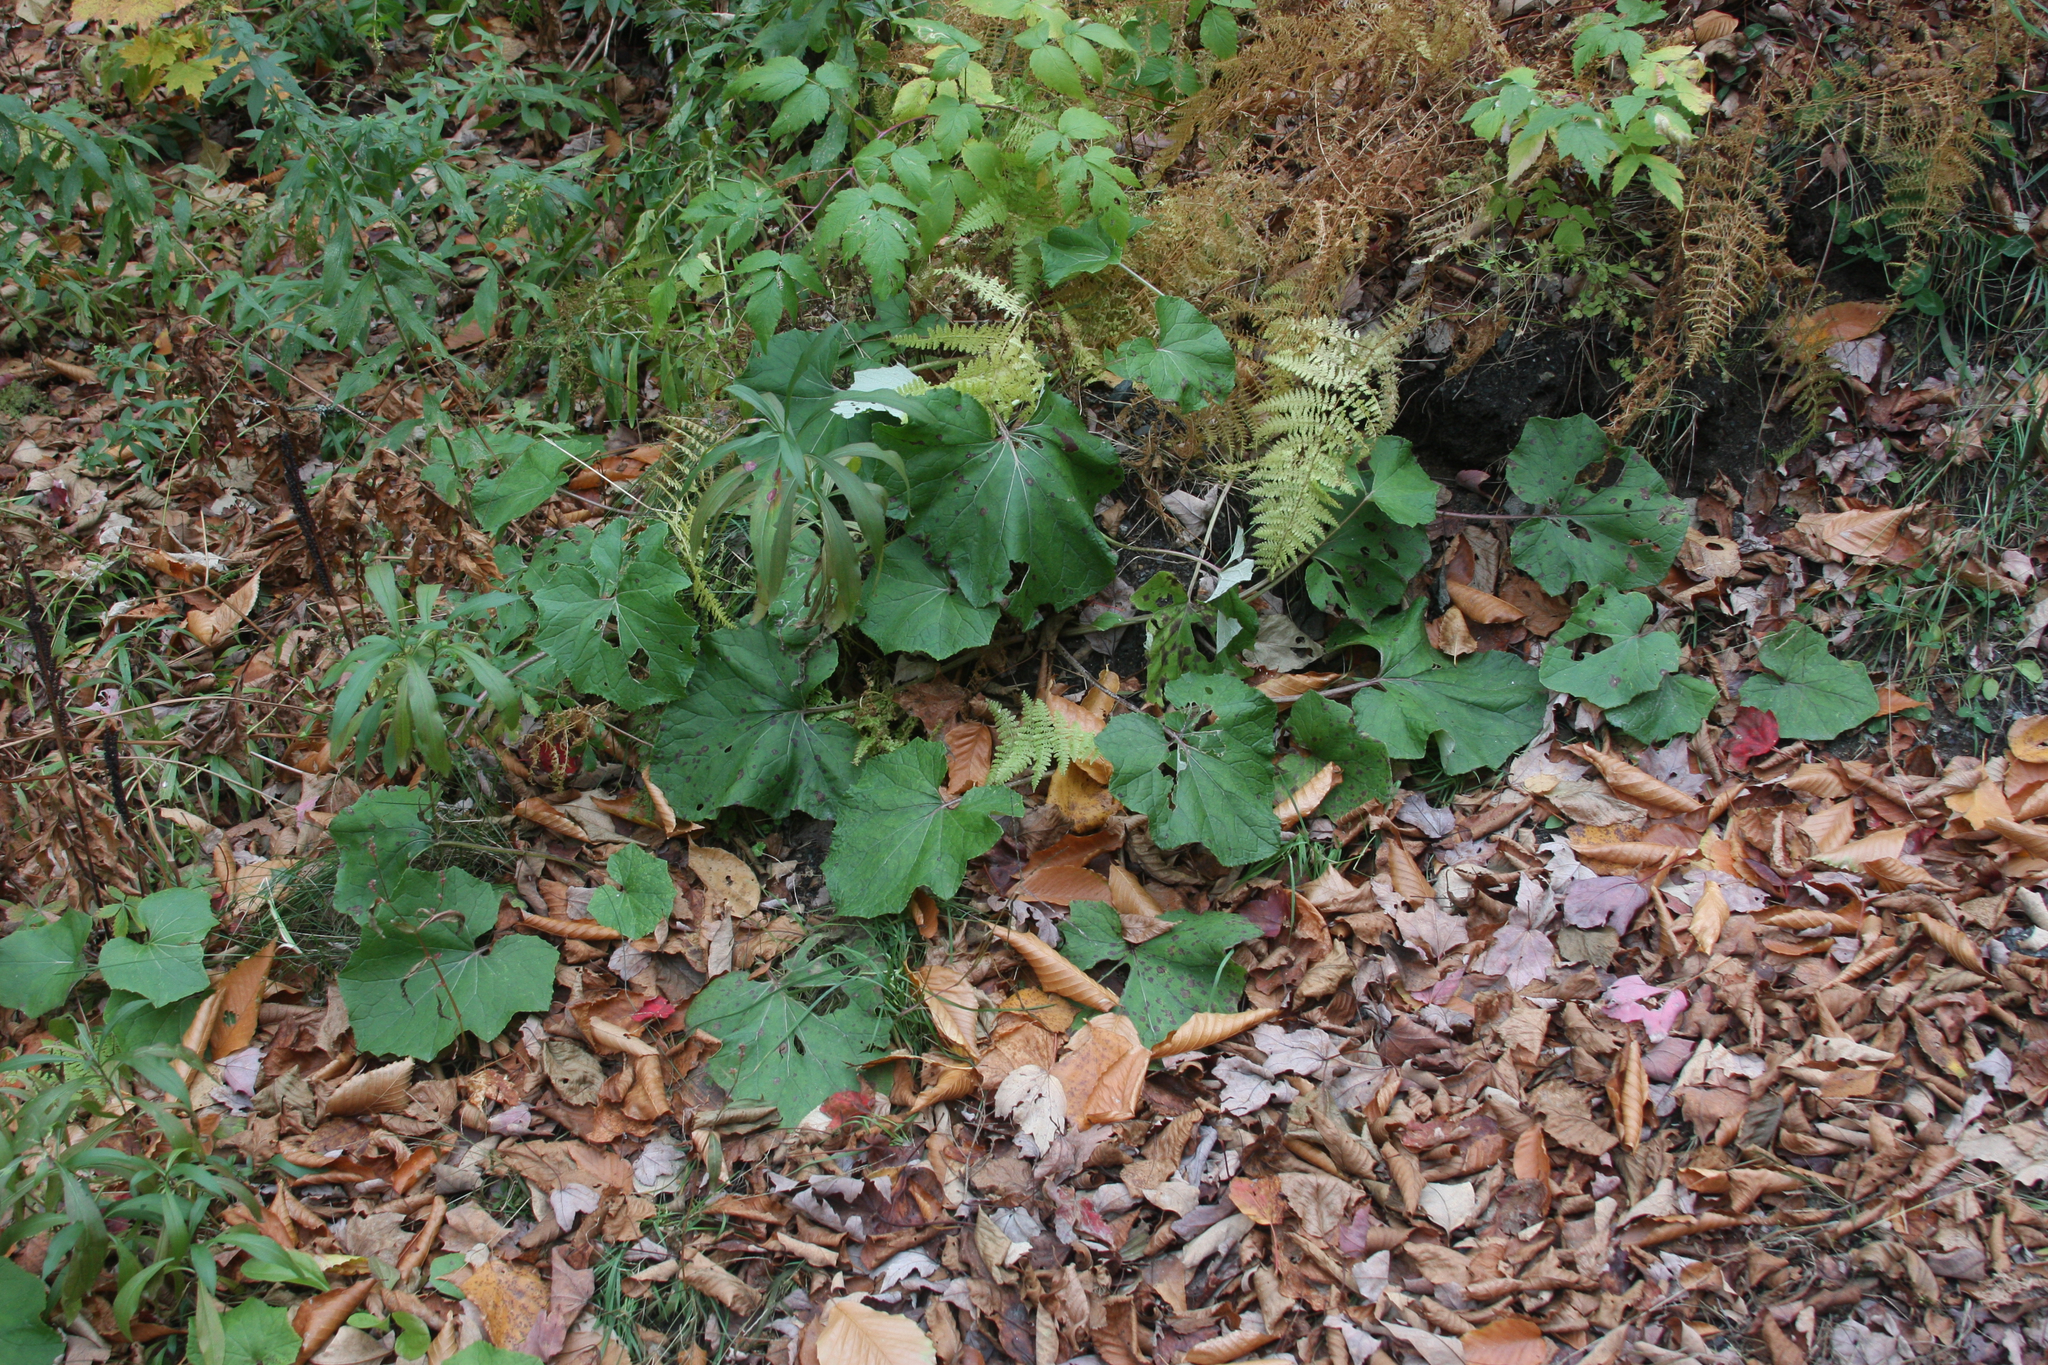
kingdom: Plantae
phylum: Tracheophyta
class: Magnoliopsida
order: Asterales
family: Asteraceae
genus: Tussilago
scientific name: Tussilago farfara
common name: Coltsfoot
